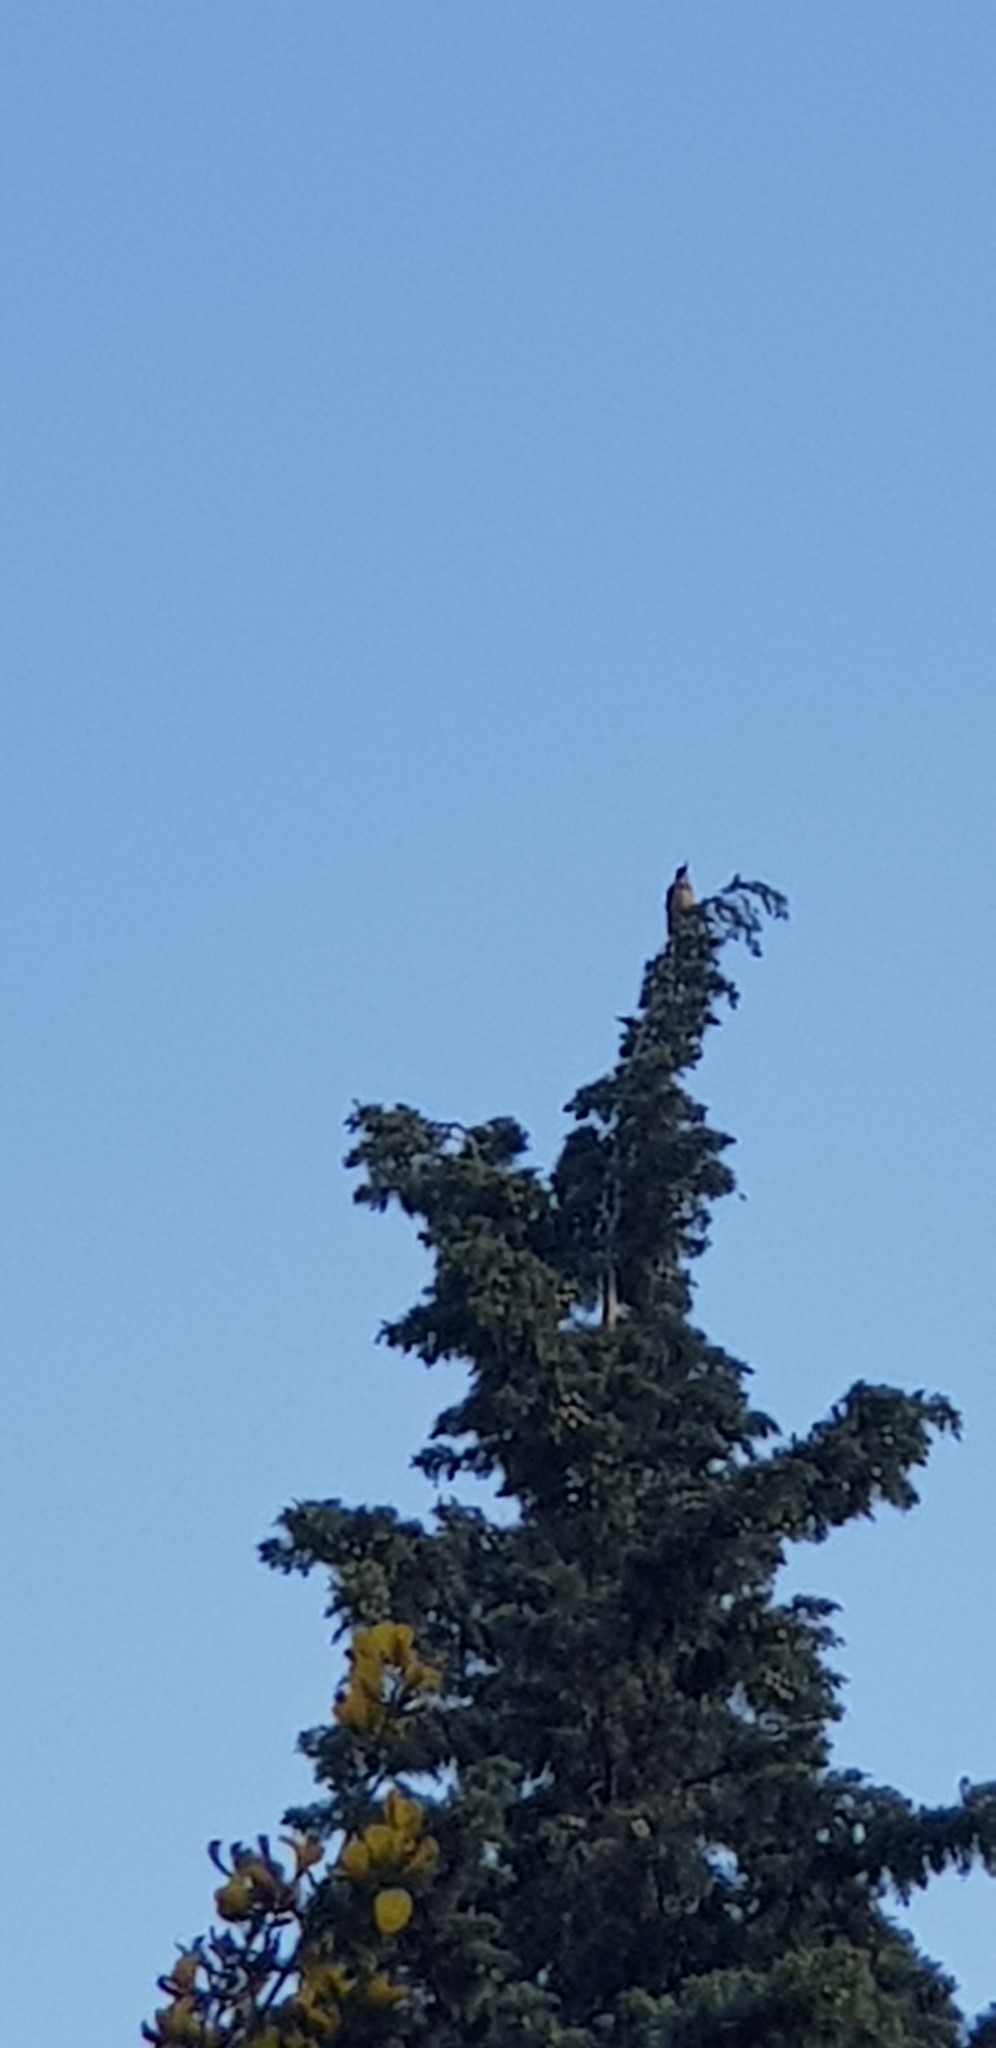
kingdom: Animalia
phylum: Chordata
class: Aves
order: Piciformes
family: Picidae
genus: Picus
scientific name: Picus vaillantii
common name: Levaillant's woodpecker
